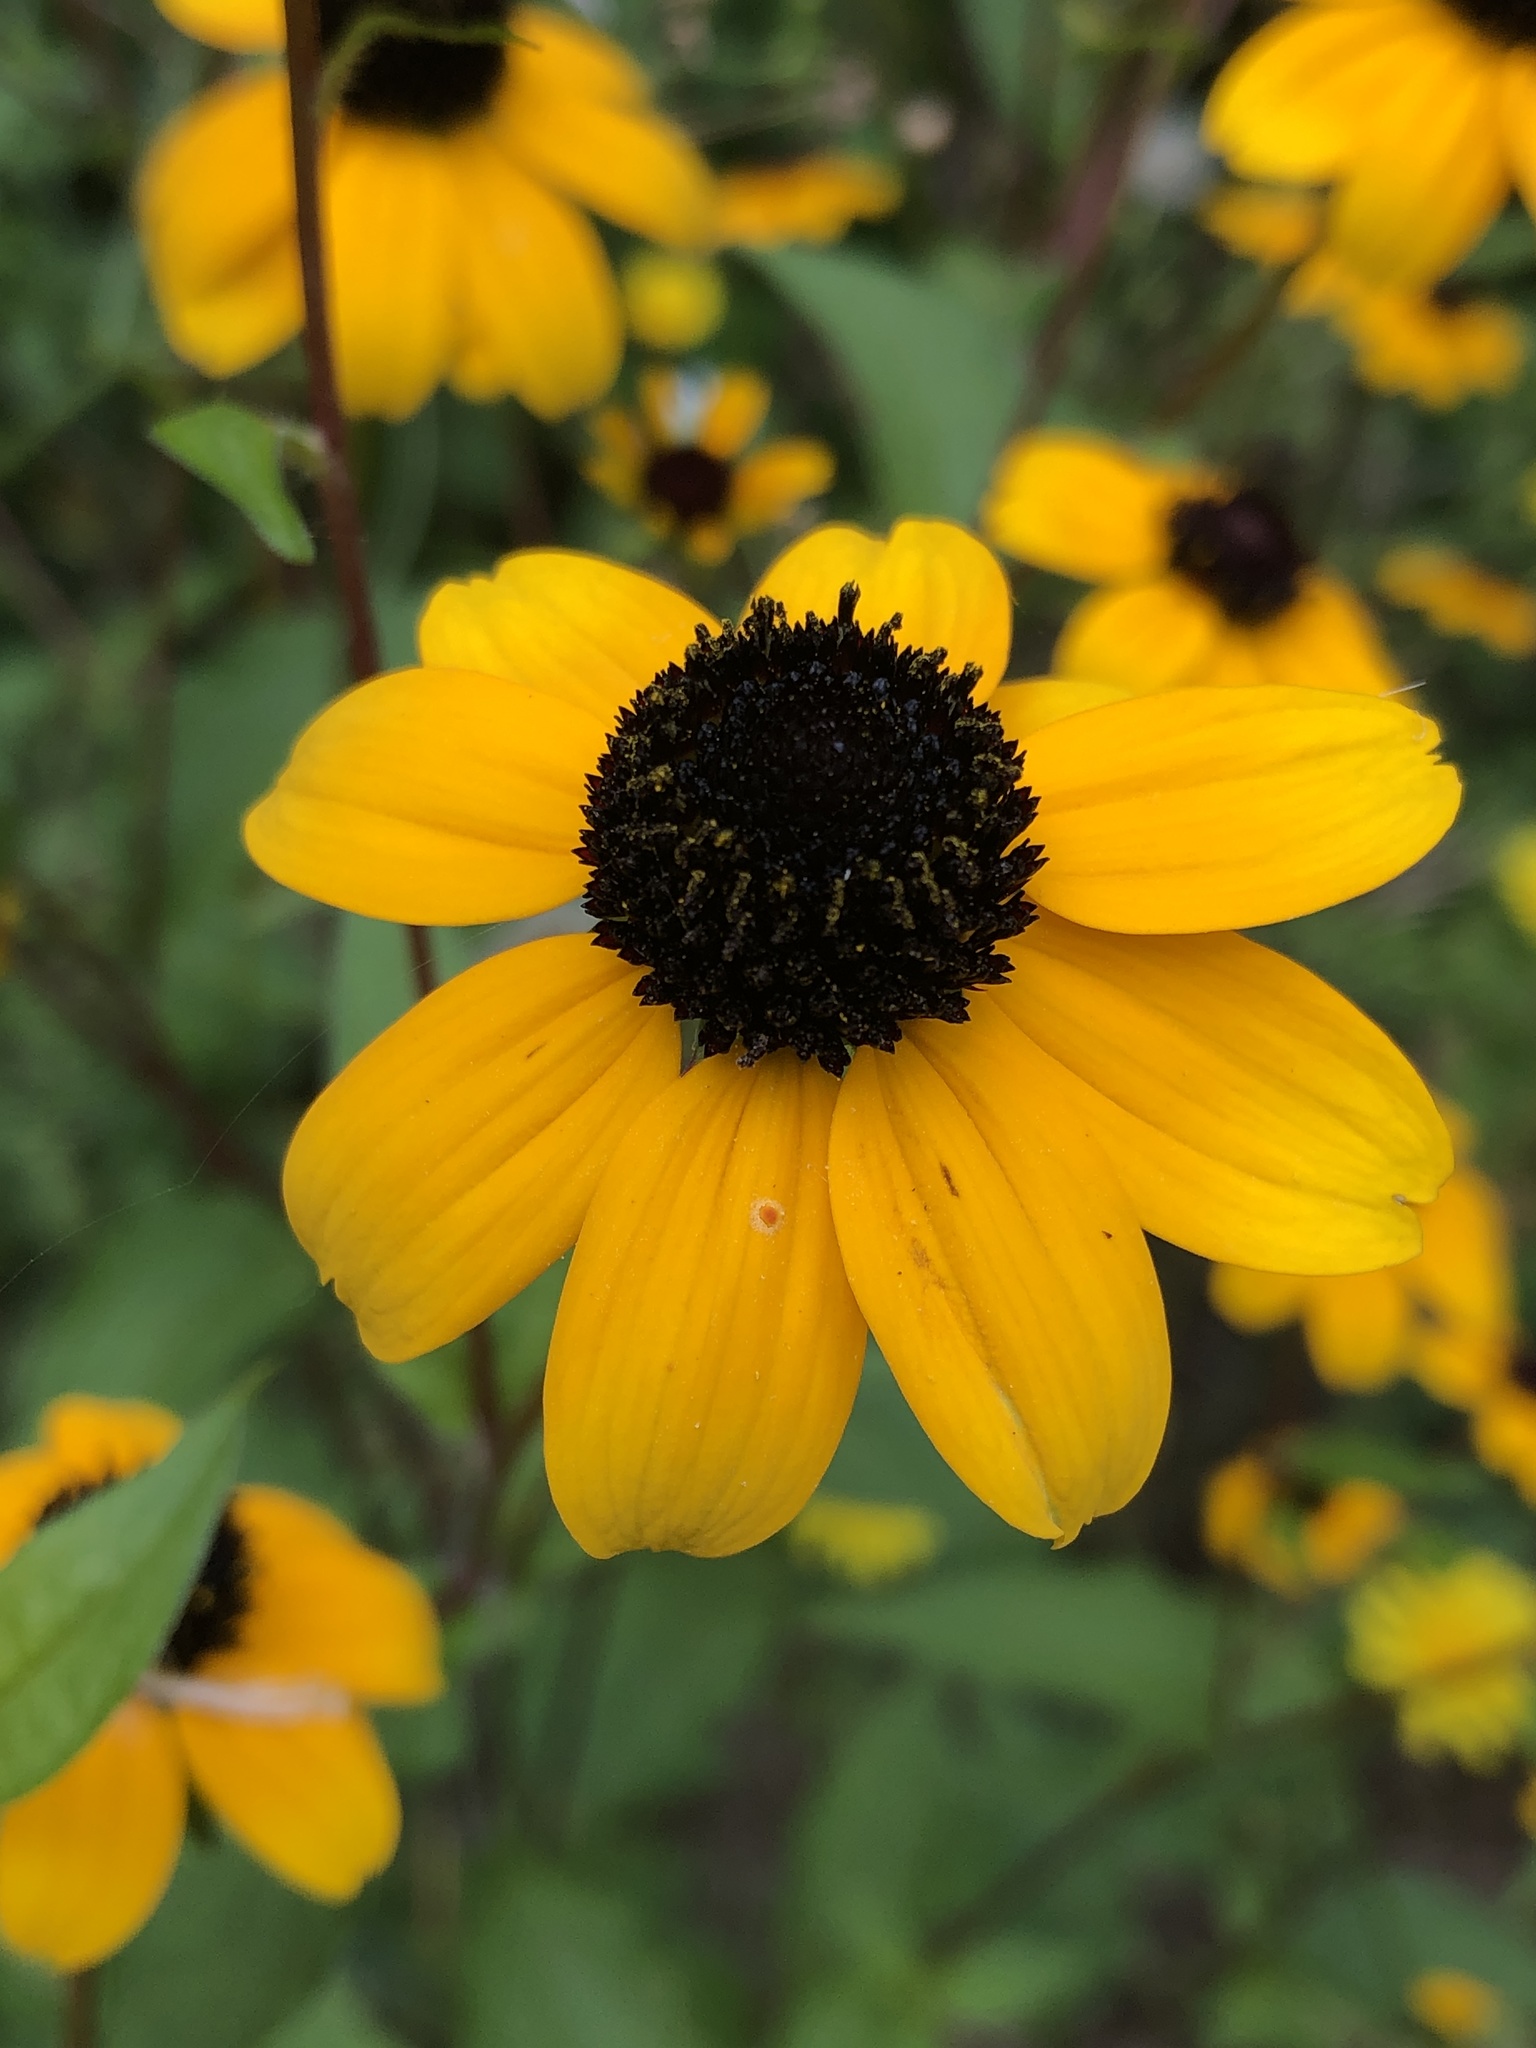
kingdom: Plantae
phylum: Tracheophyta
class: Magnoliopsida
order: Asterales
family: Asteraceae
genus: Rudbeckia
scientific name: Rudbeckia triloba
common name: Thin-leaved coneflower
